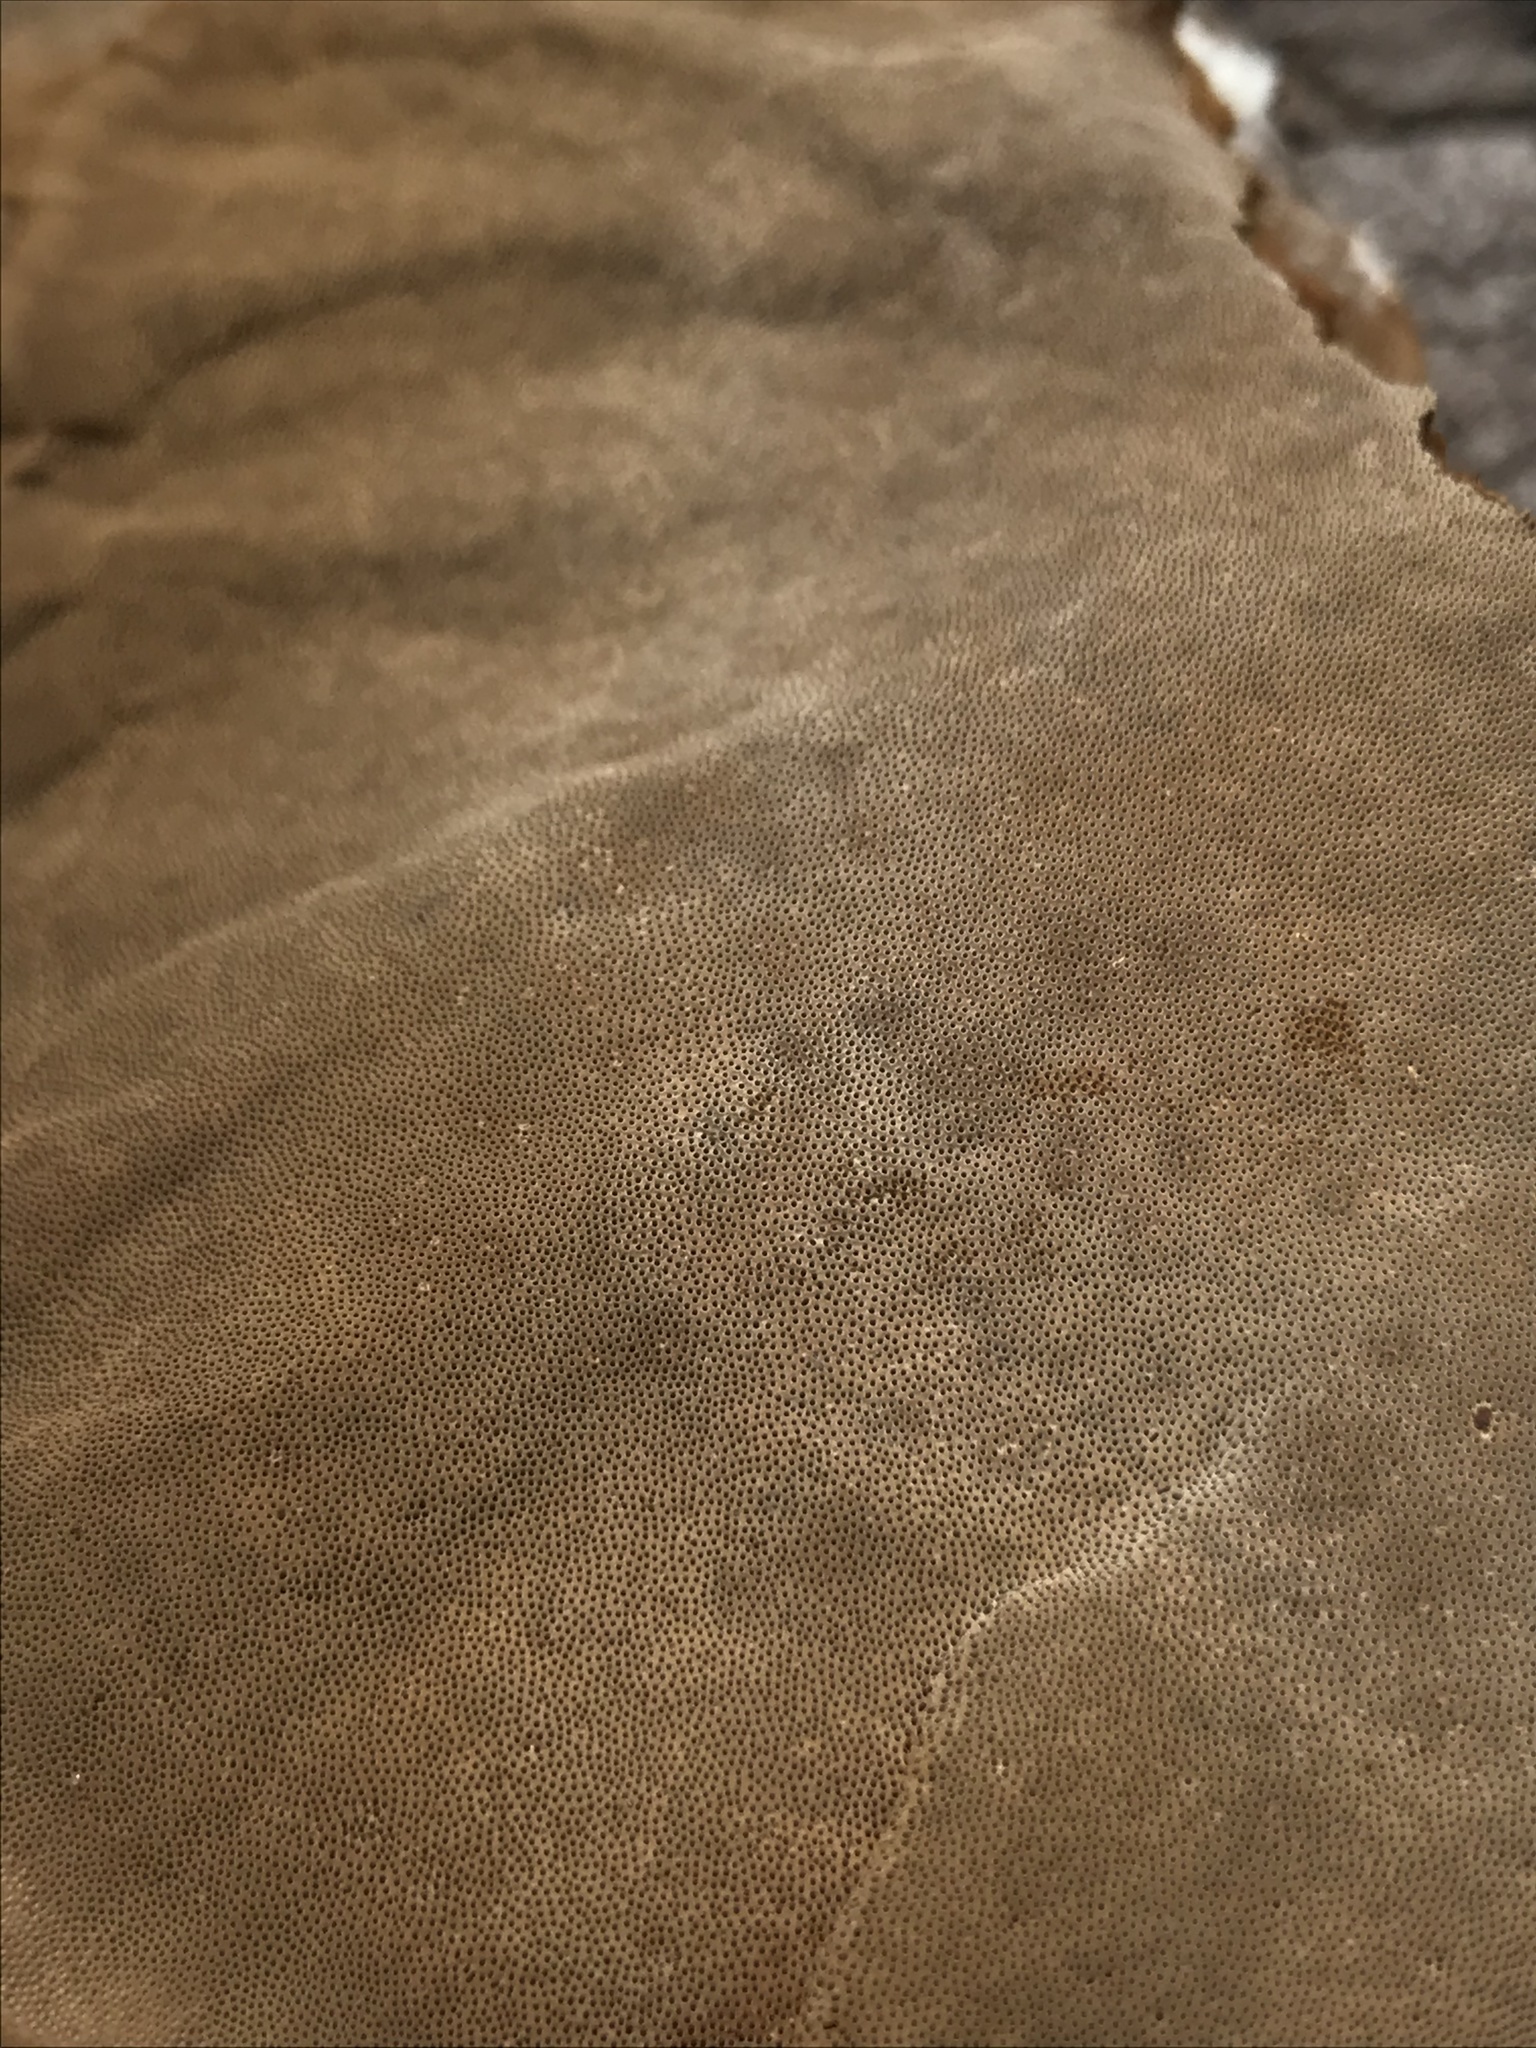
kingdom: Fungi
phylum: Basidiomycota
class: Agaricomycetes
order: Polyporales
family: Cerrenaceae
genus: Cerrena
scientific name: Cerrena hydnoides
